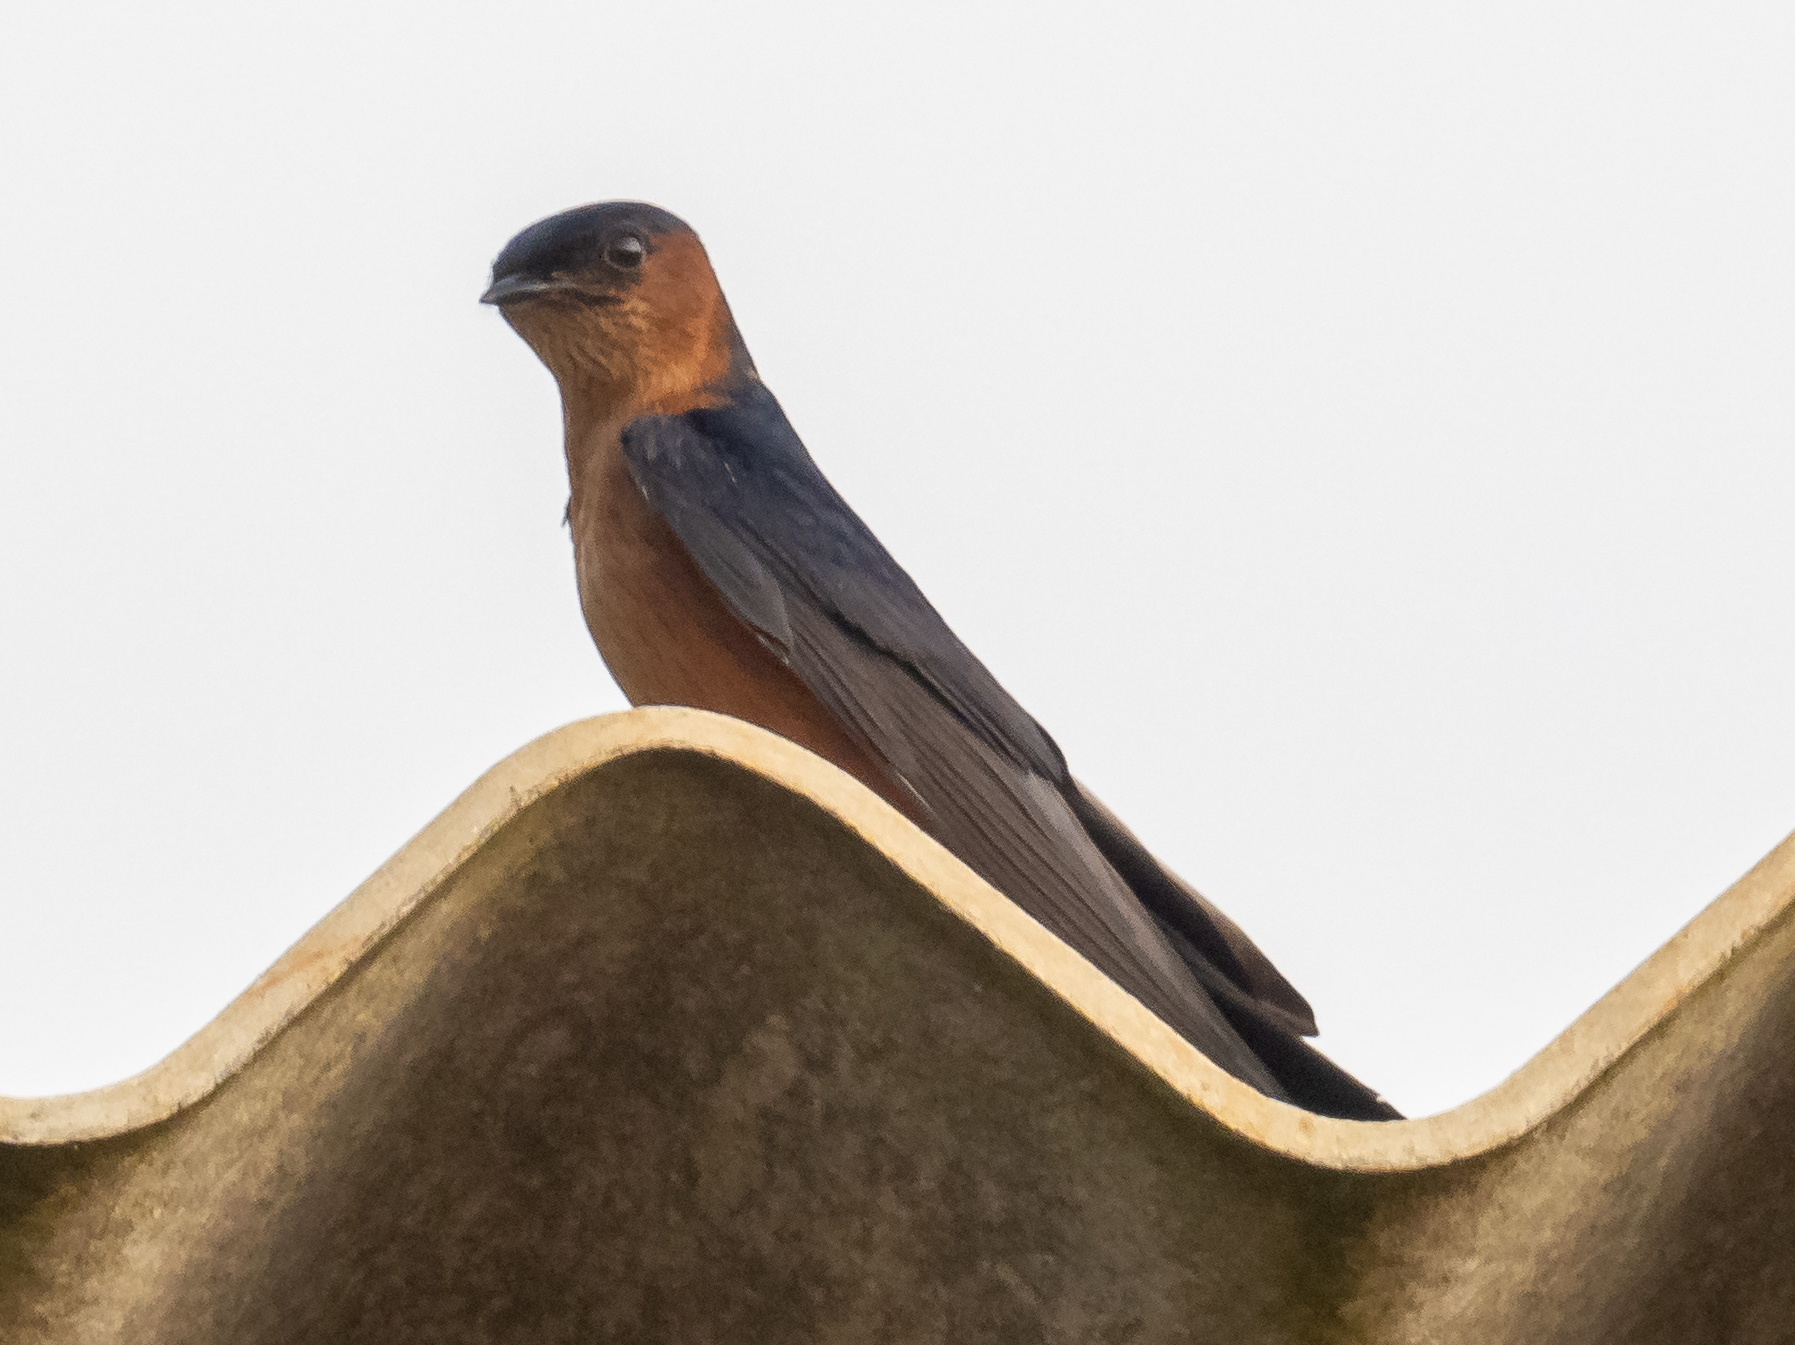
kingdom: Animalia
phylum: Chordata
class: Aves
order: Passeriformes
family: Hirundinidae
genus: Cecropis
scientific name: Cecropis hyperythra
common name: Sri lanka swallow
